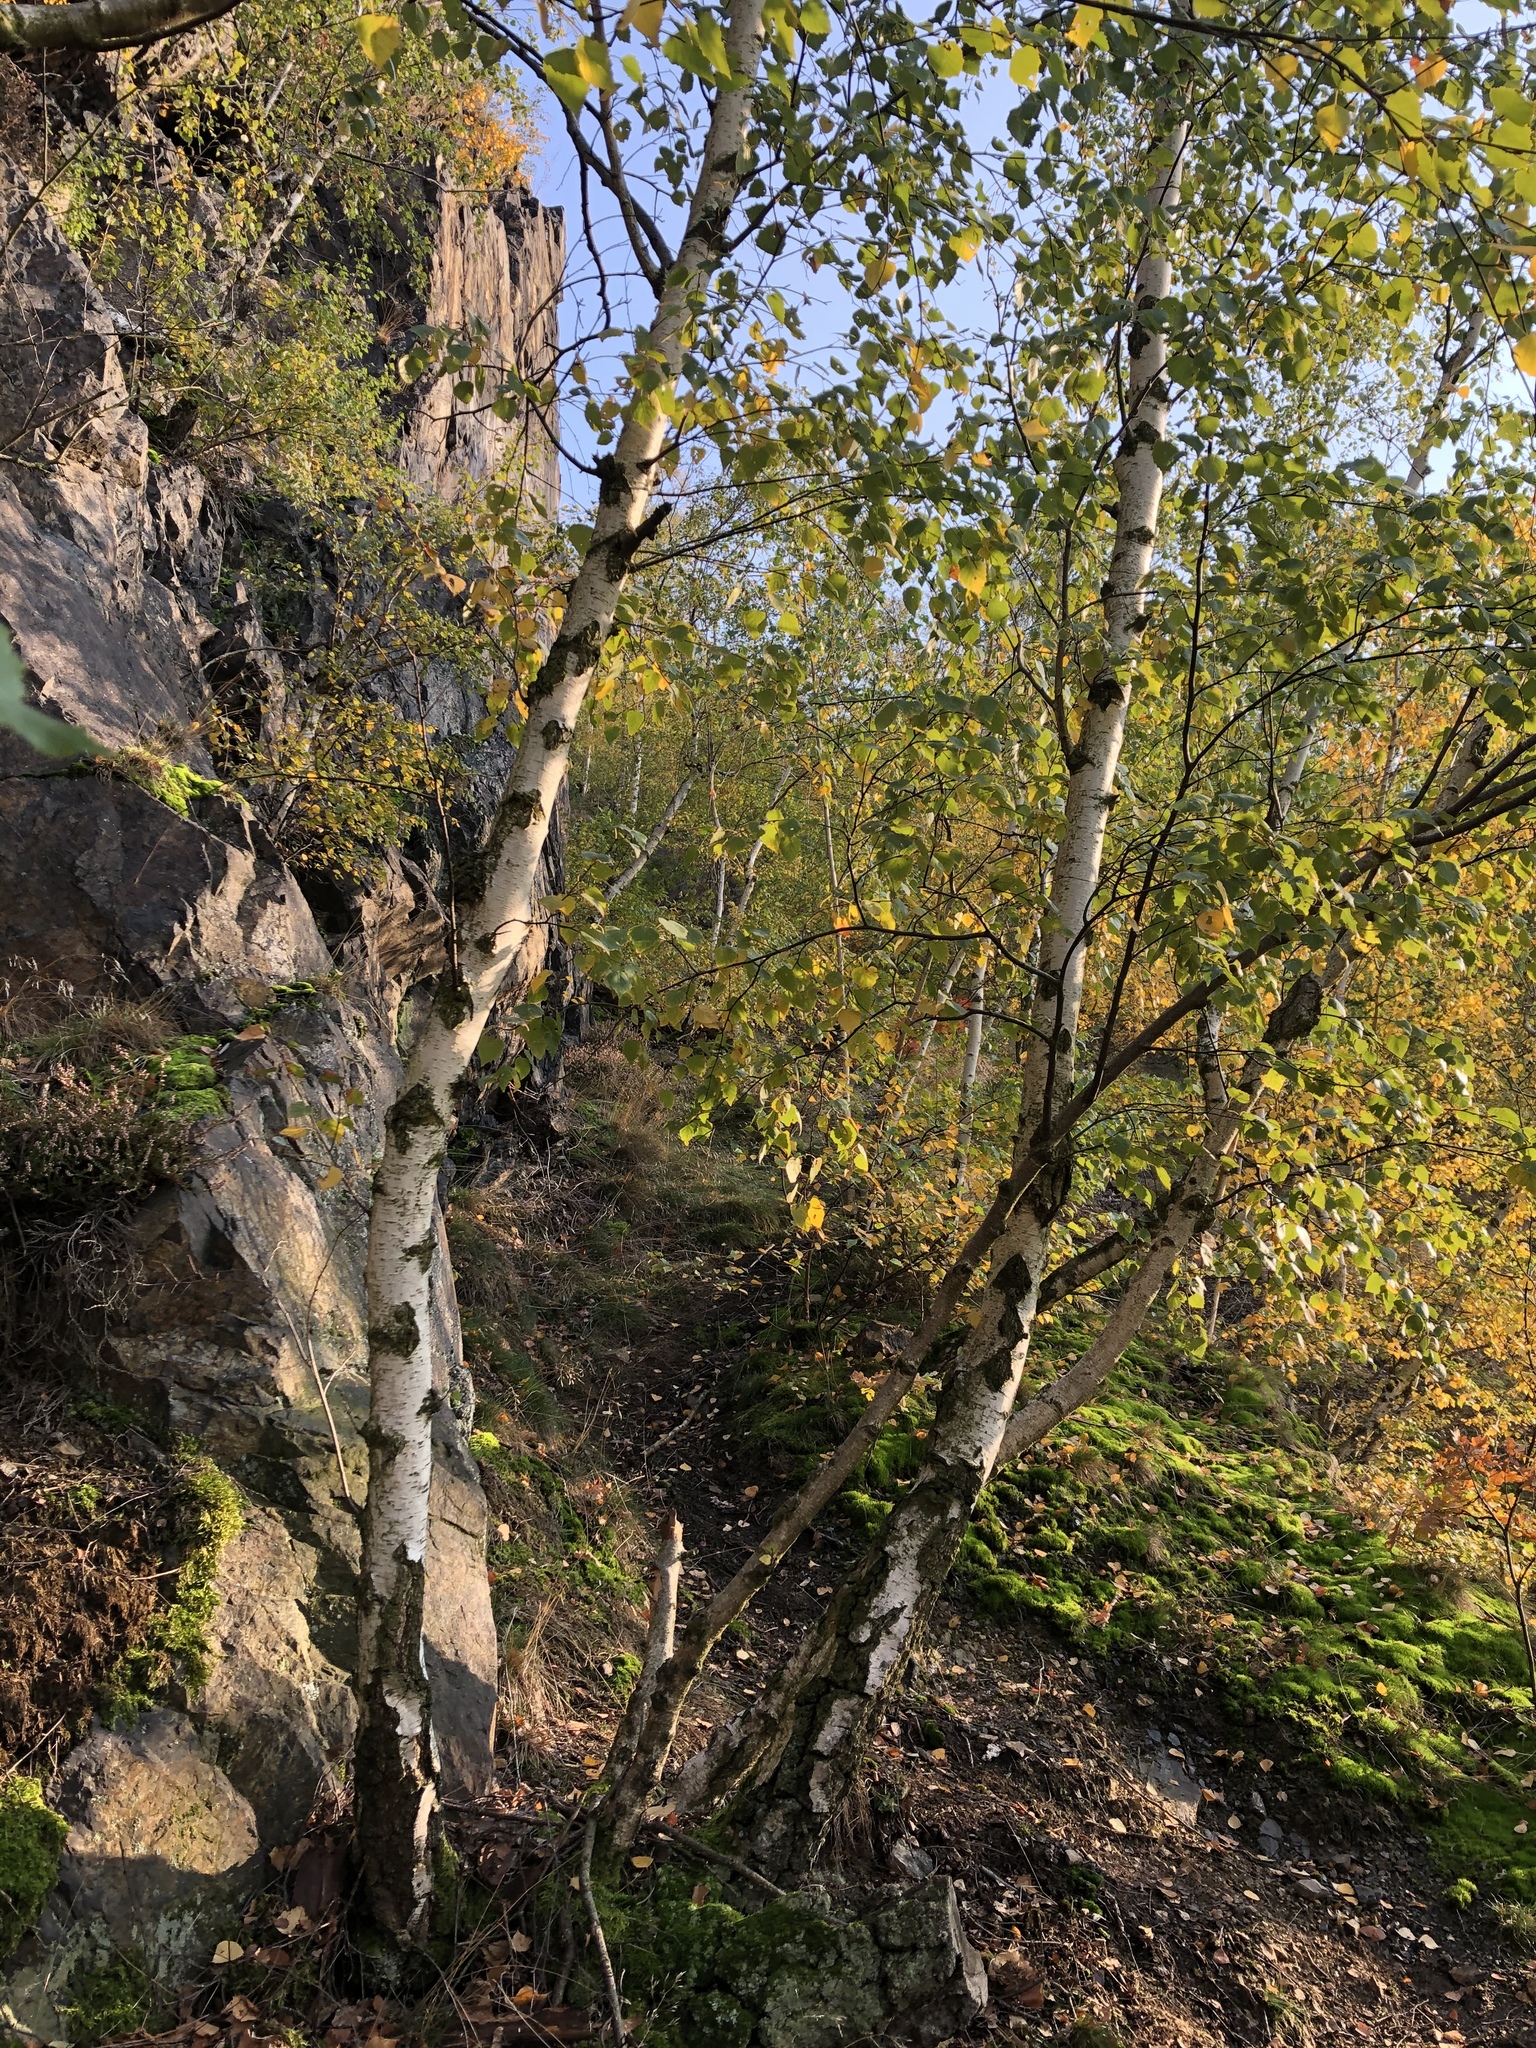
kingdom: Plantae
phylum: Tracheophyta
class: Magnoliopsida
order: Fagales
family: Betulaceae
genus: Betula
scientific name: Betula pendula
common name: Silver birch
